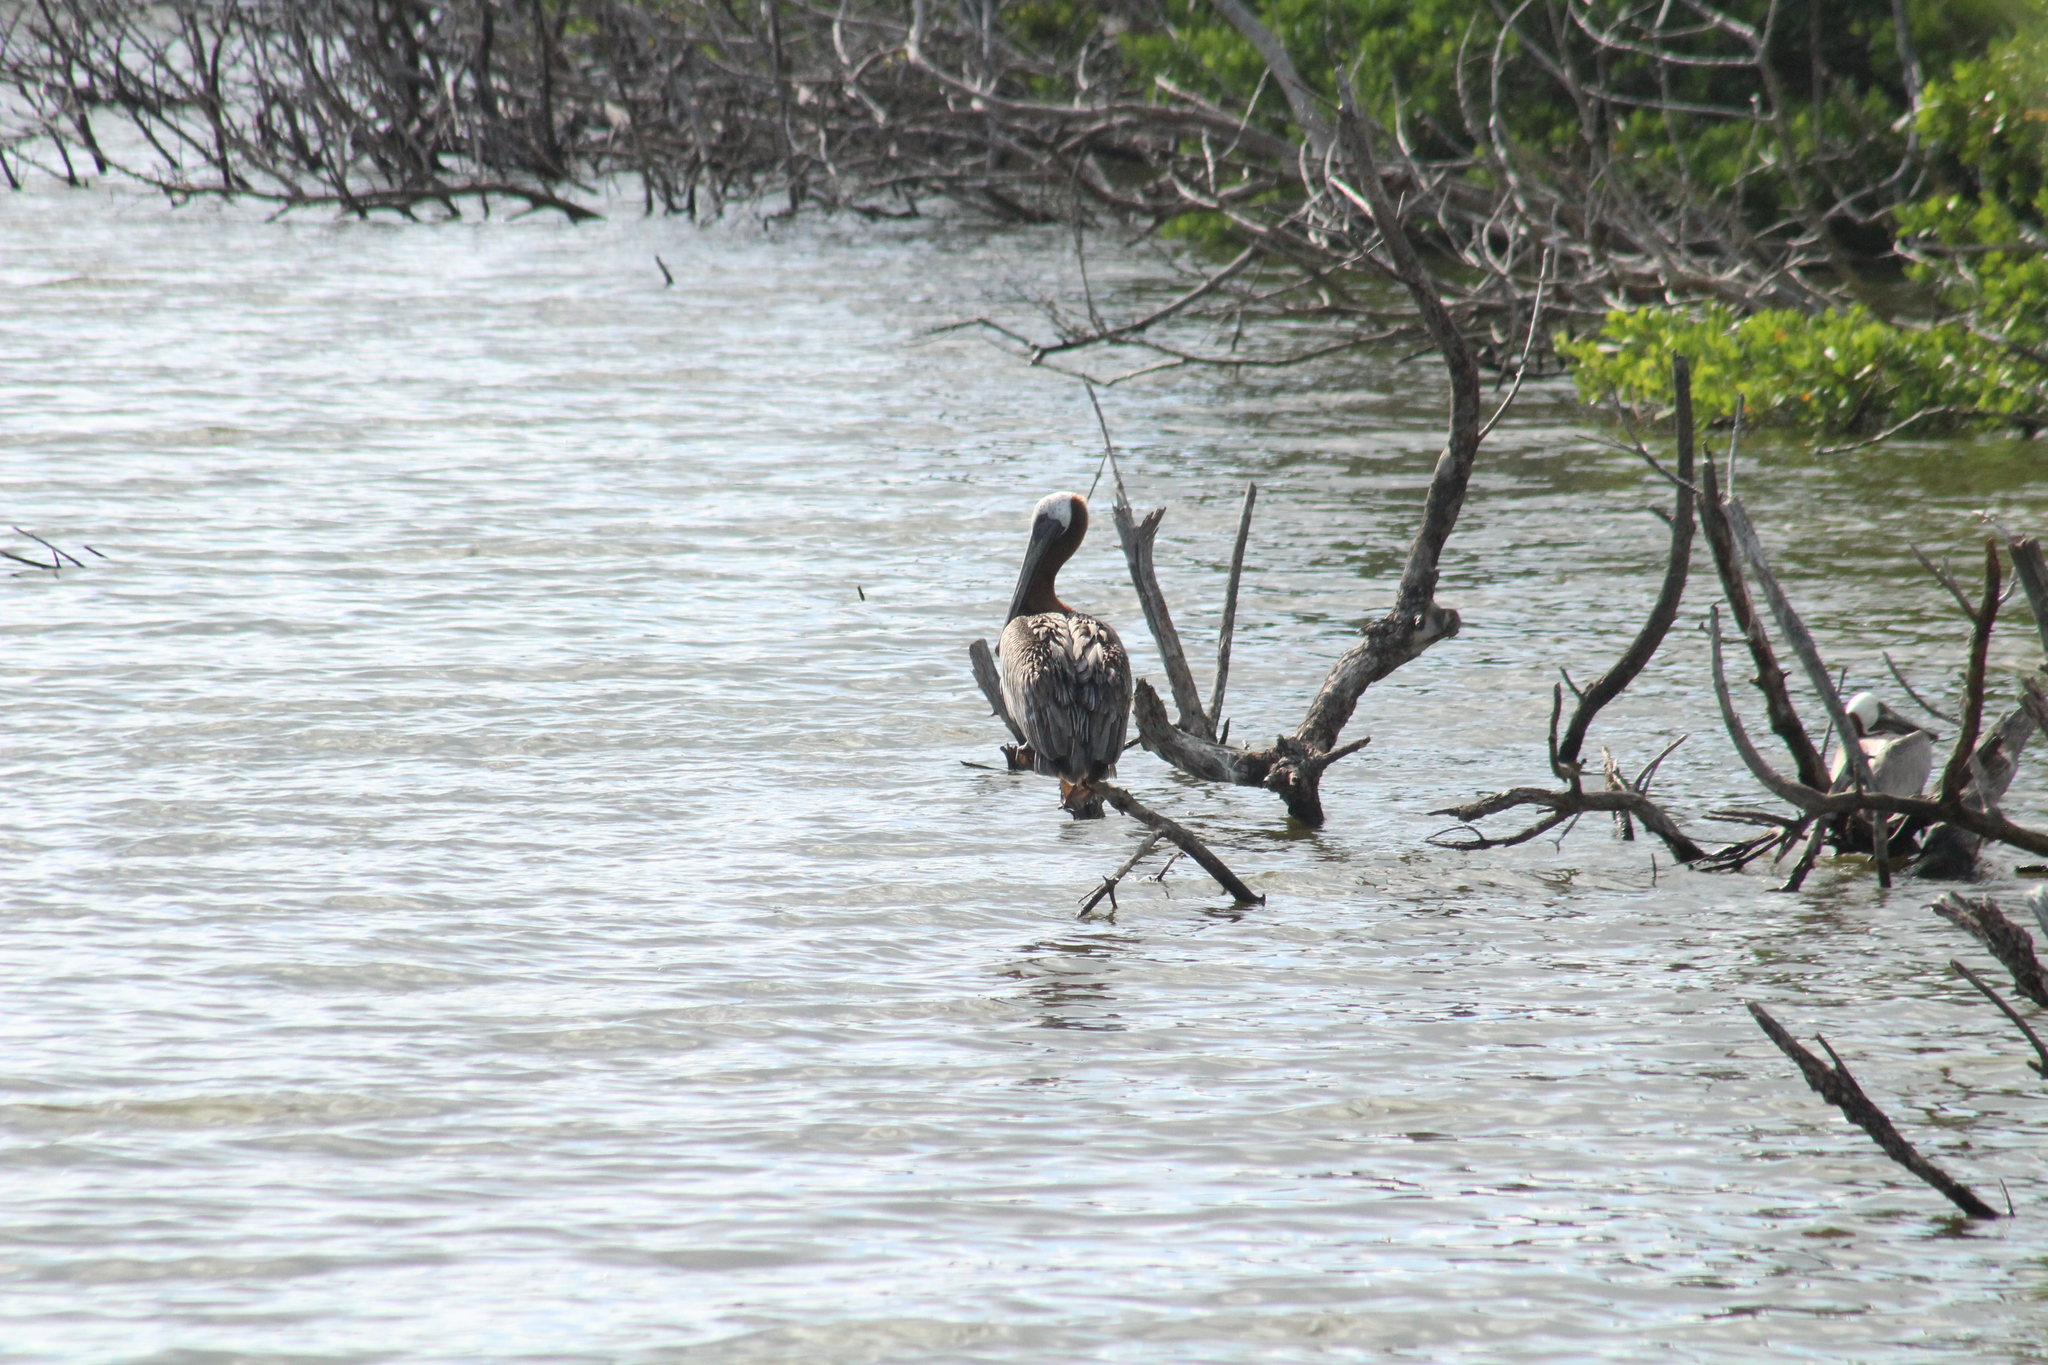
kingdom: Animalia
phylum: Chordata
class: Aves
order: Pelecaniformes
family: Pelecanidae
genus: Pelecanus
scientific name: Pelecanus occidentalis
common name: Brown pelican
